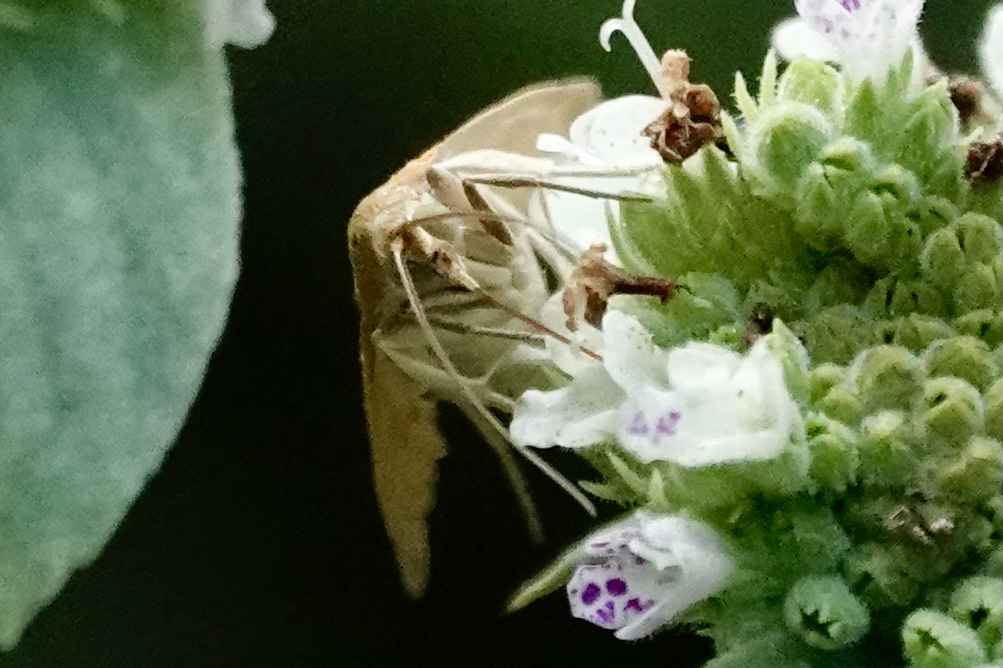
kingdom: Animalia
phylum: Arthropoda
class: Insecta
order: Lepidoptera
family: Crambidae
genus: Achyra
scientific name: Achyra rantalis
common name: Garden webworm
